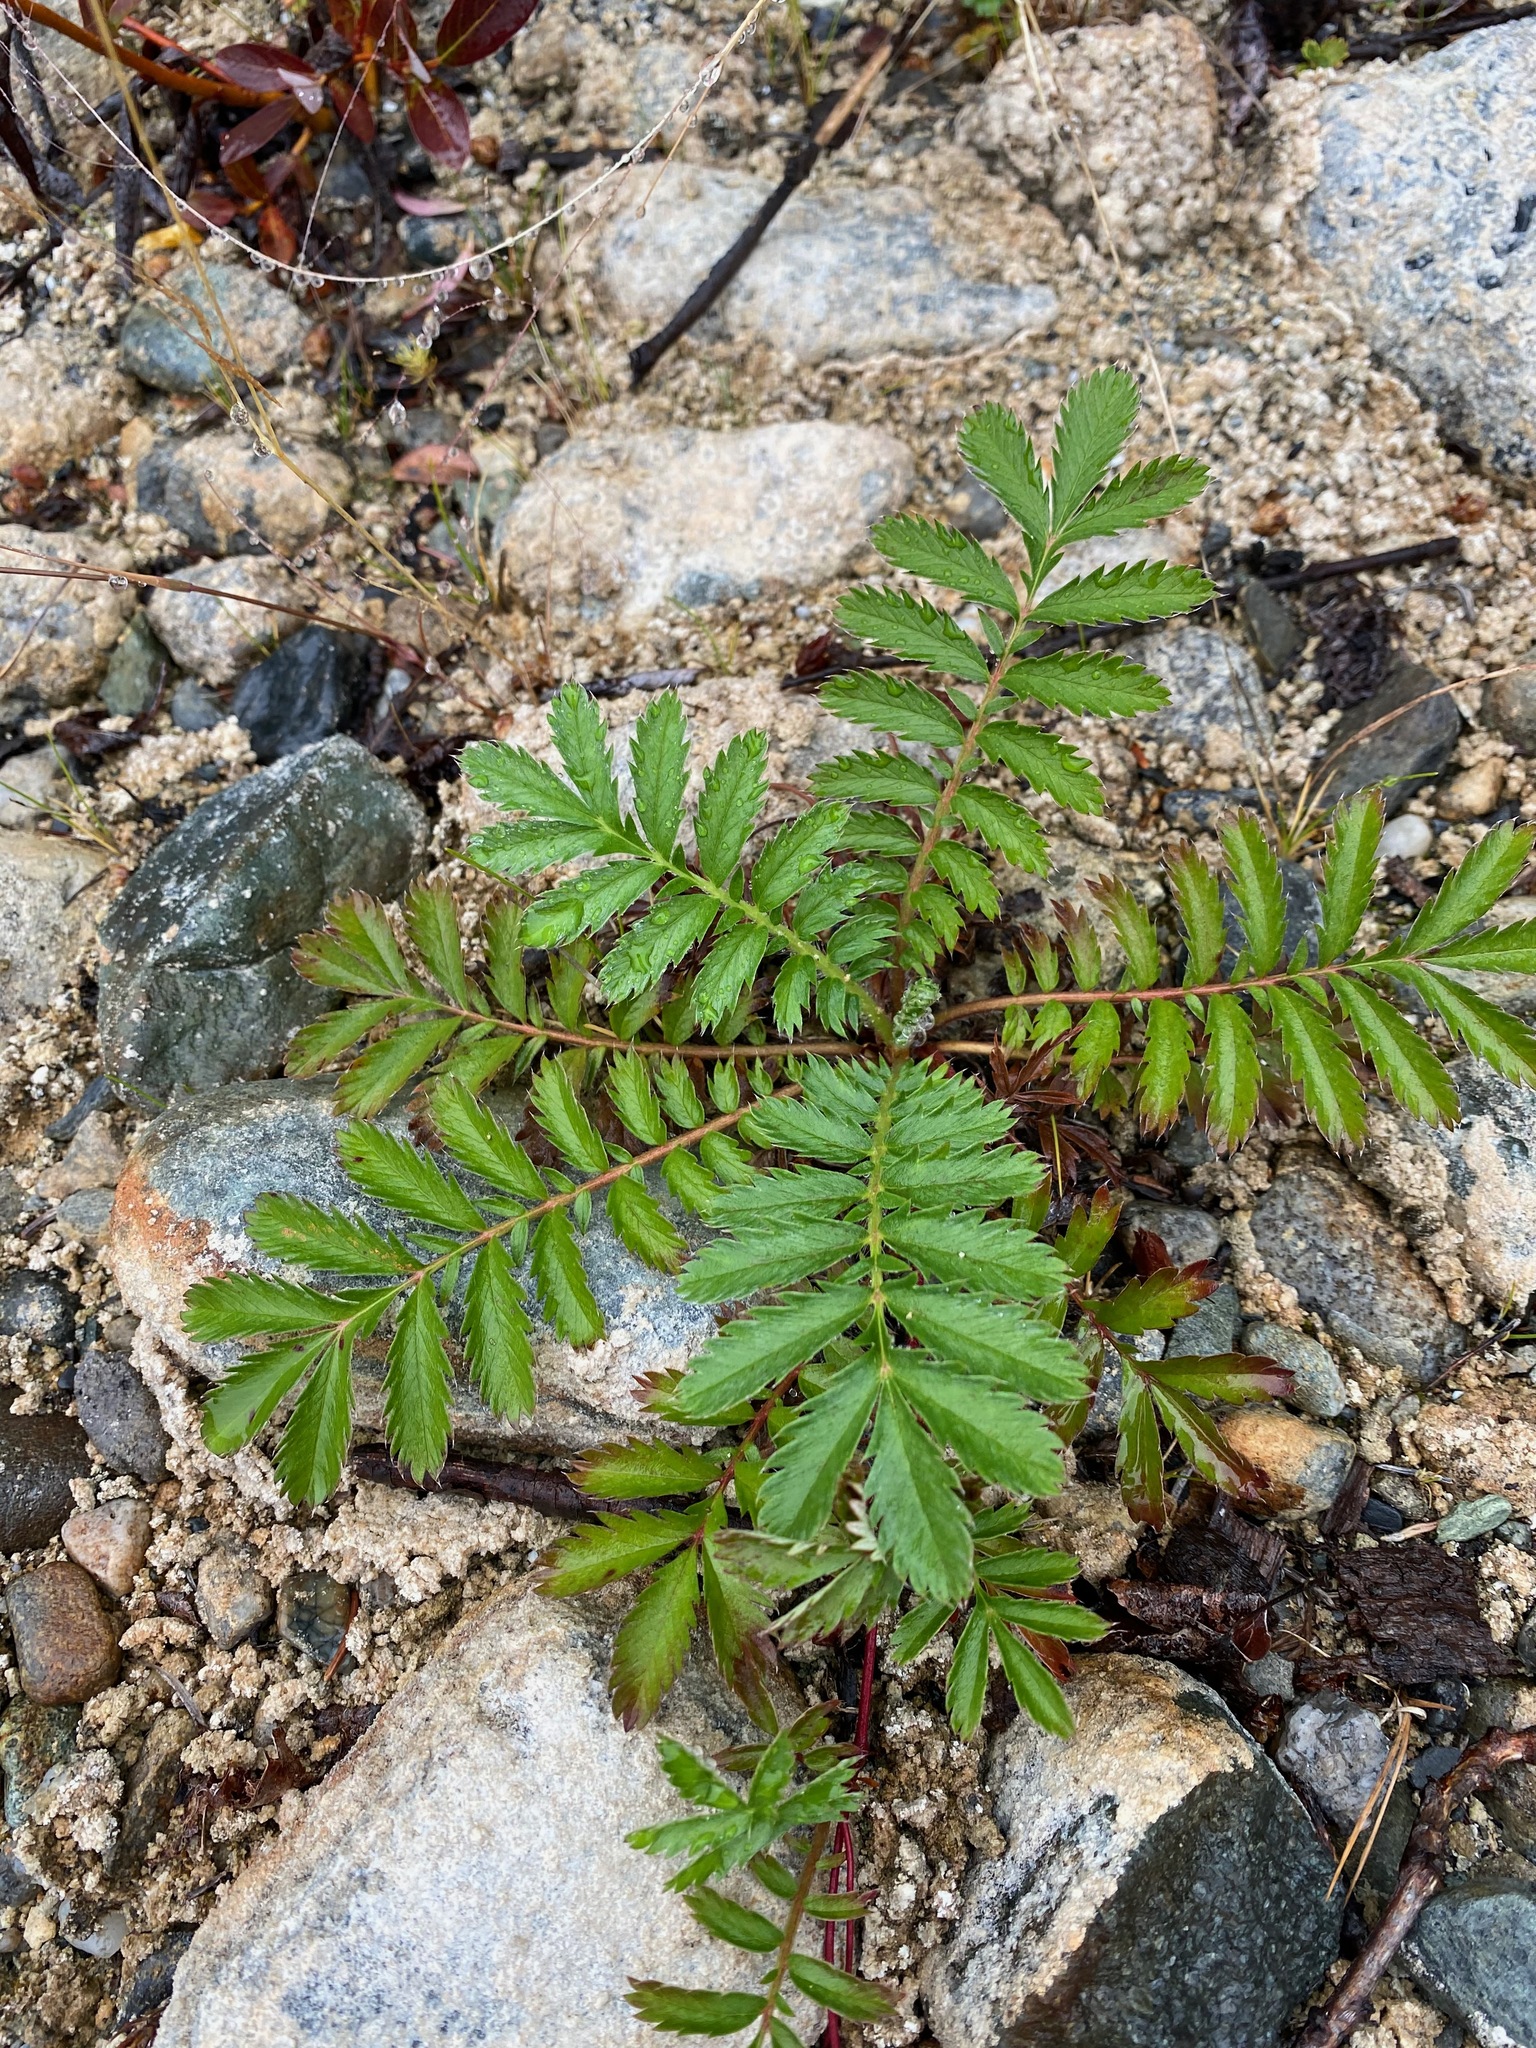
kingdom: Plantae
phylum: Tracheophyta
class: Magnoliopsida
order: Rosales
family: Rosaceae
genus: Argentina
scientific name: Argentina anserina
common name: Common silverweed
